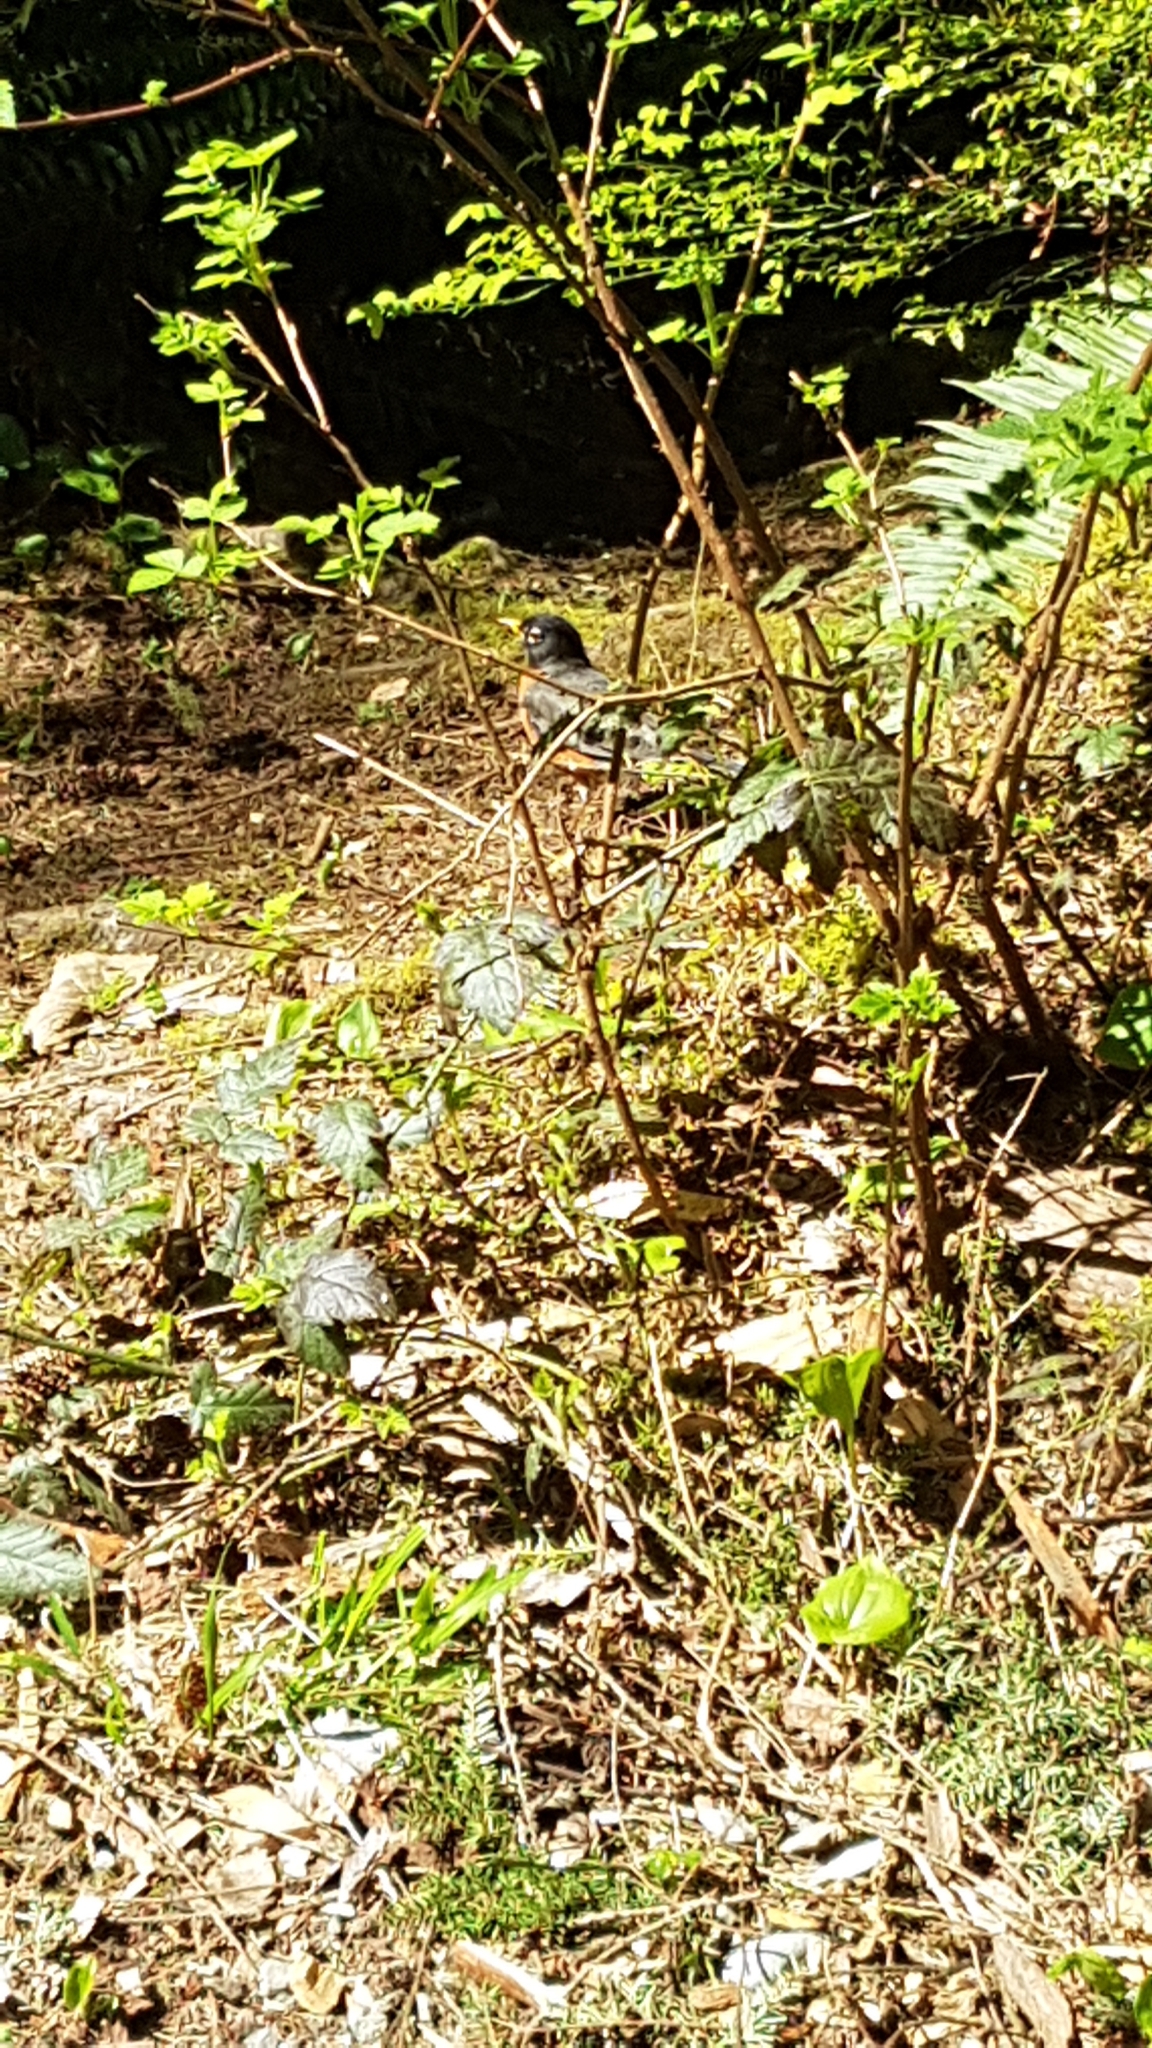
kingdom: Animalia
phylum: Chordata
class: Aves
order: Passeriformes
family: Turdidae
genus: Turdus
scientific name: Turdus migratorius
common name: American robin
